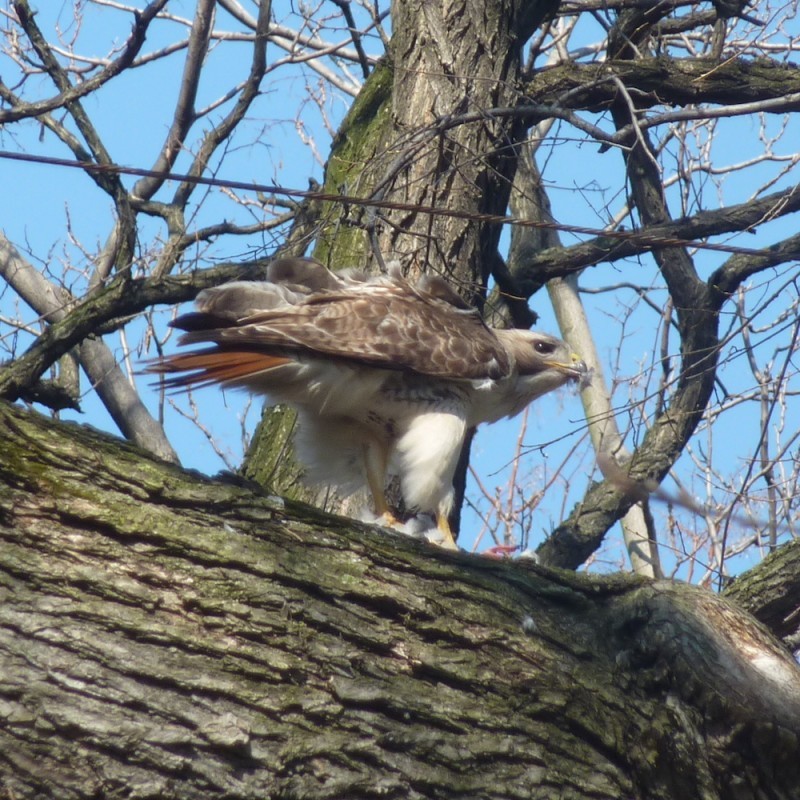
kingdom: Animalia
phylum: Chordata
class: Aves
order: Accipitriformes
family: Accipitridae
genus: Buteo
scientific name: Buteo jamaicensis
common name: Red-tailed hawk
